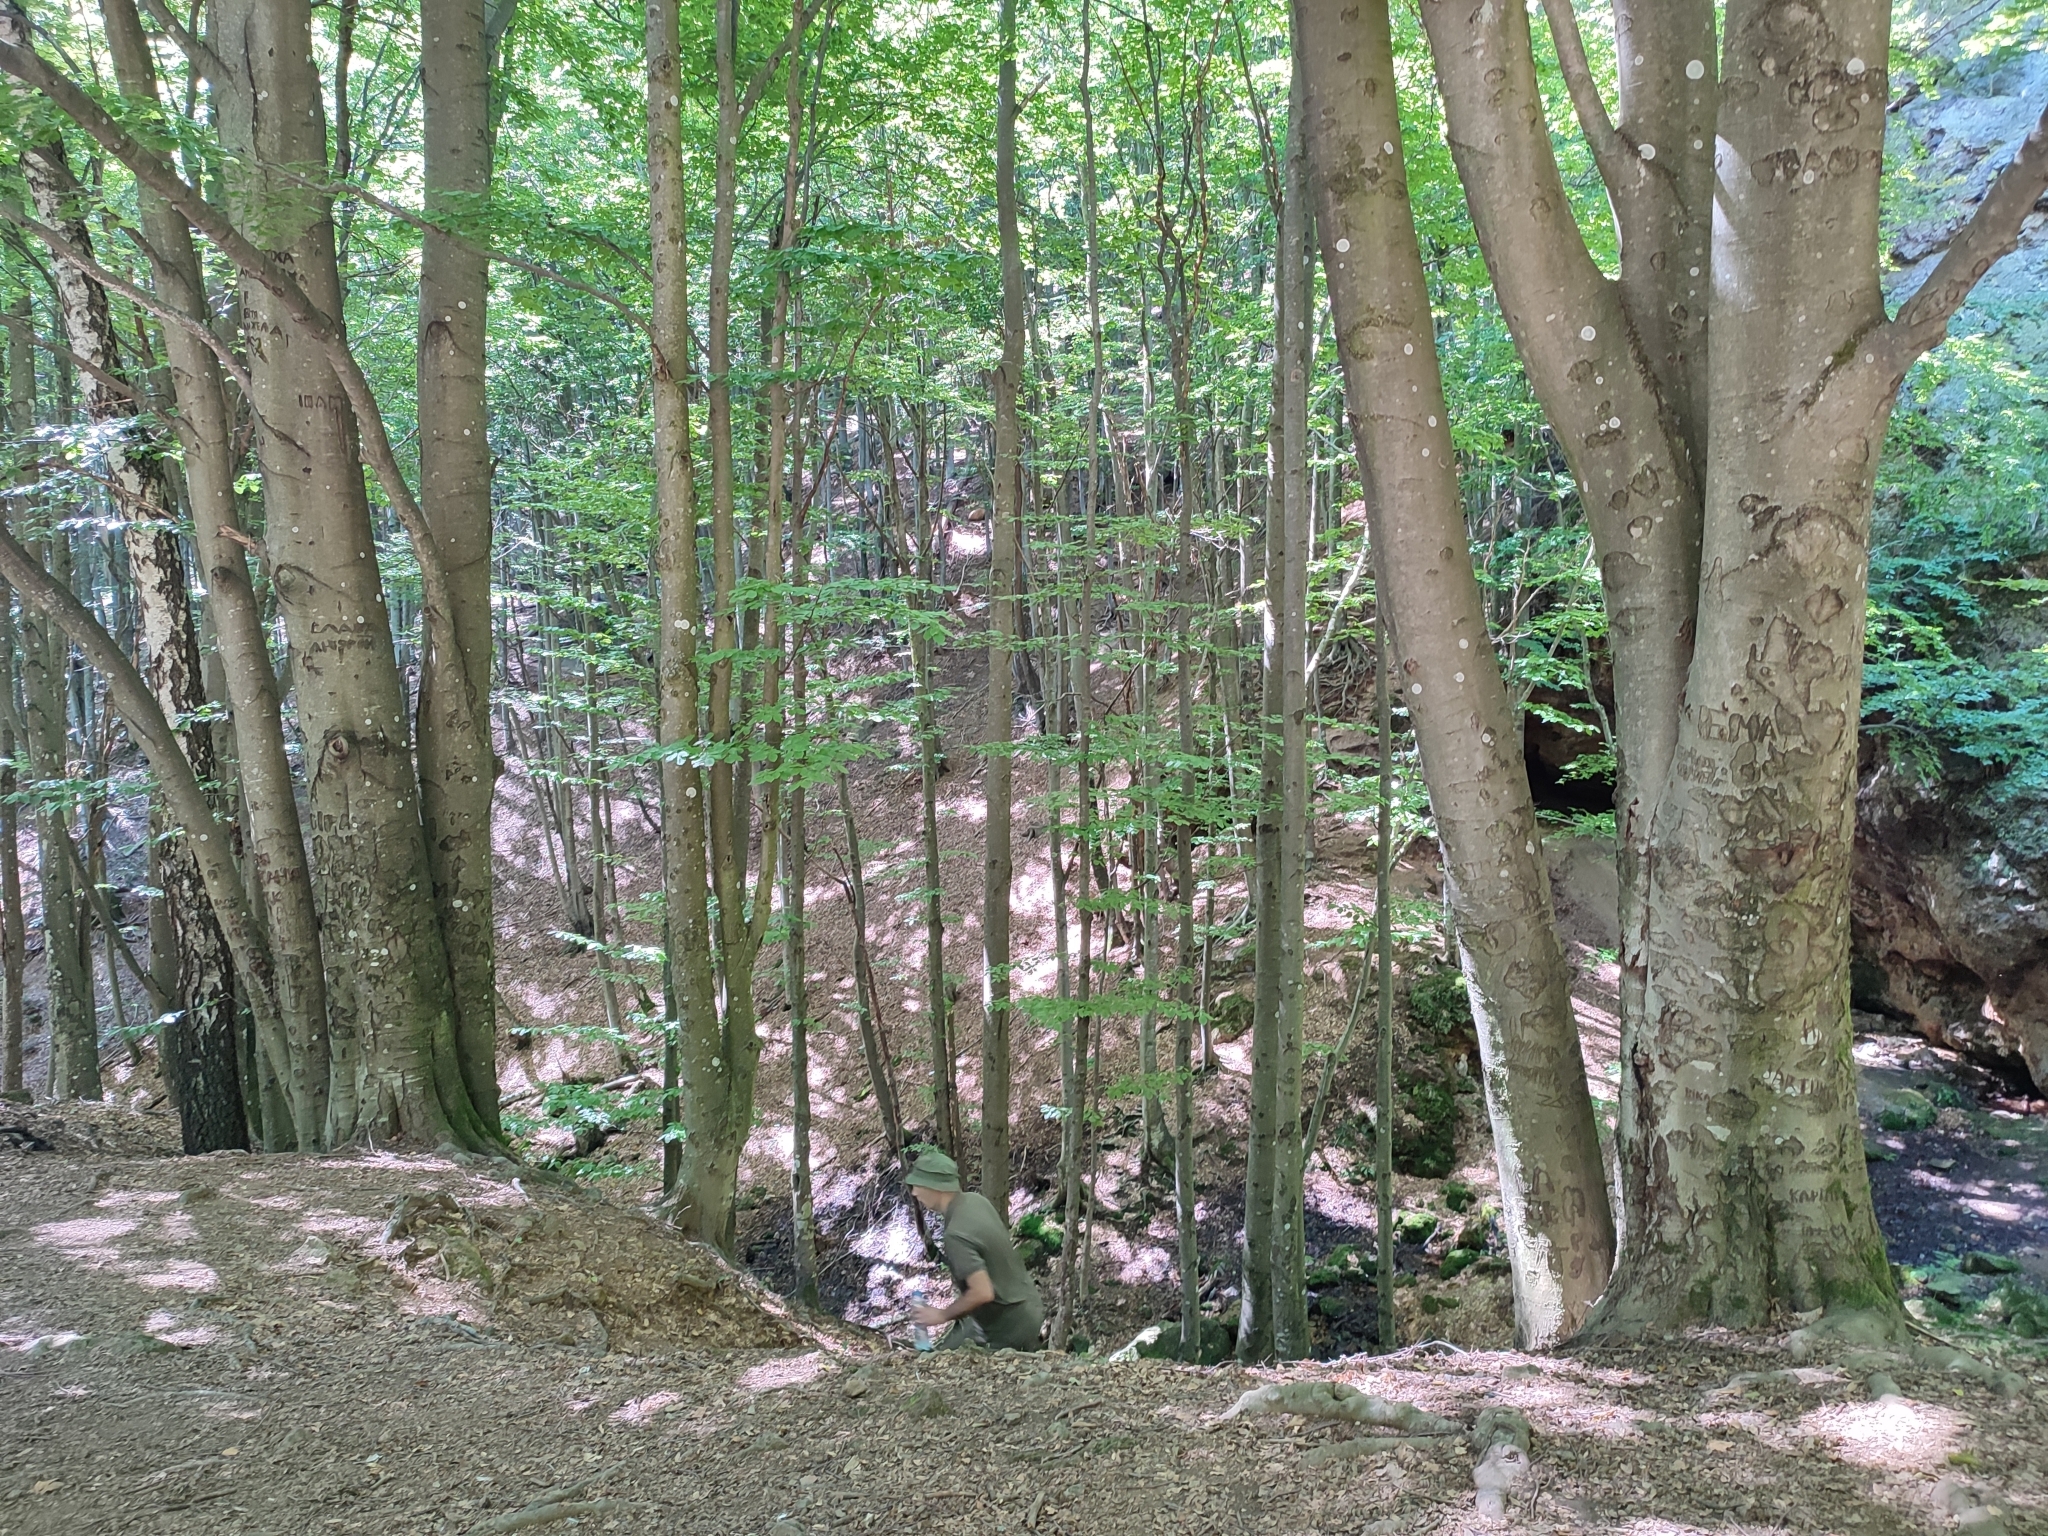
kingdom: Plantae
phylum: Tracheophyta
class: Magnoliopsida
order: Fagales
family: Fagaceae
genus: Fagus
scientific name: Fagus sylvatica
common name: Beech
